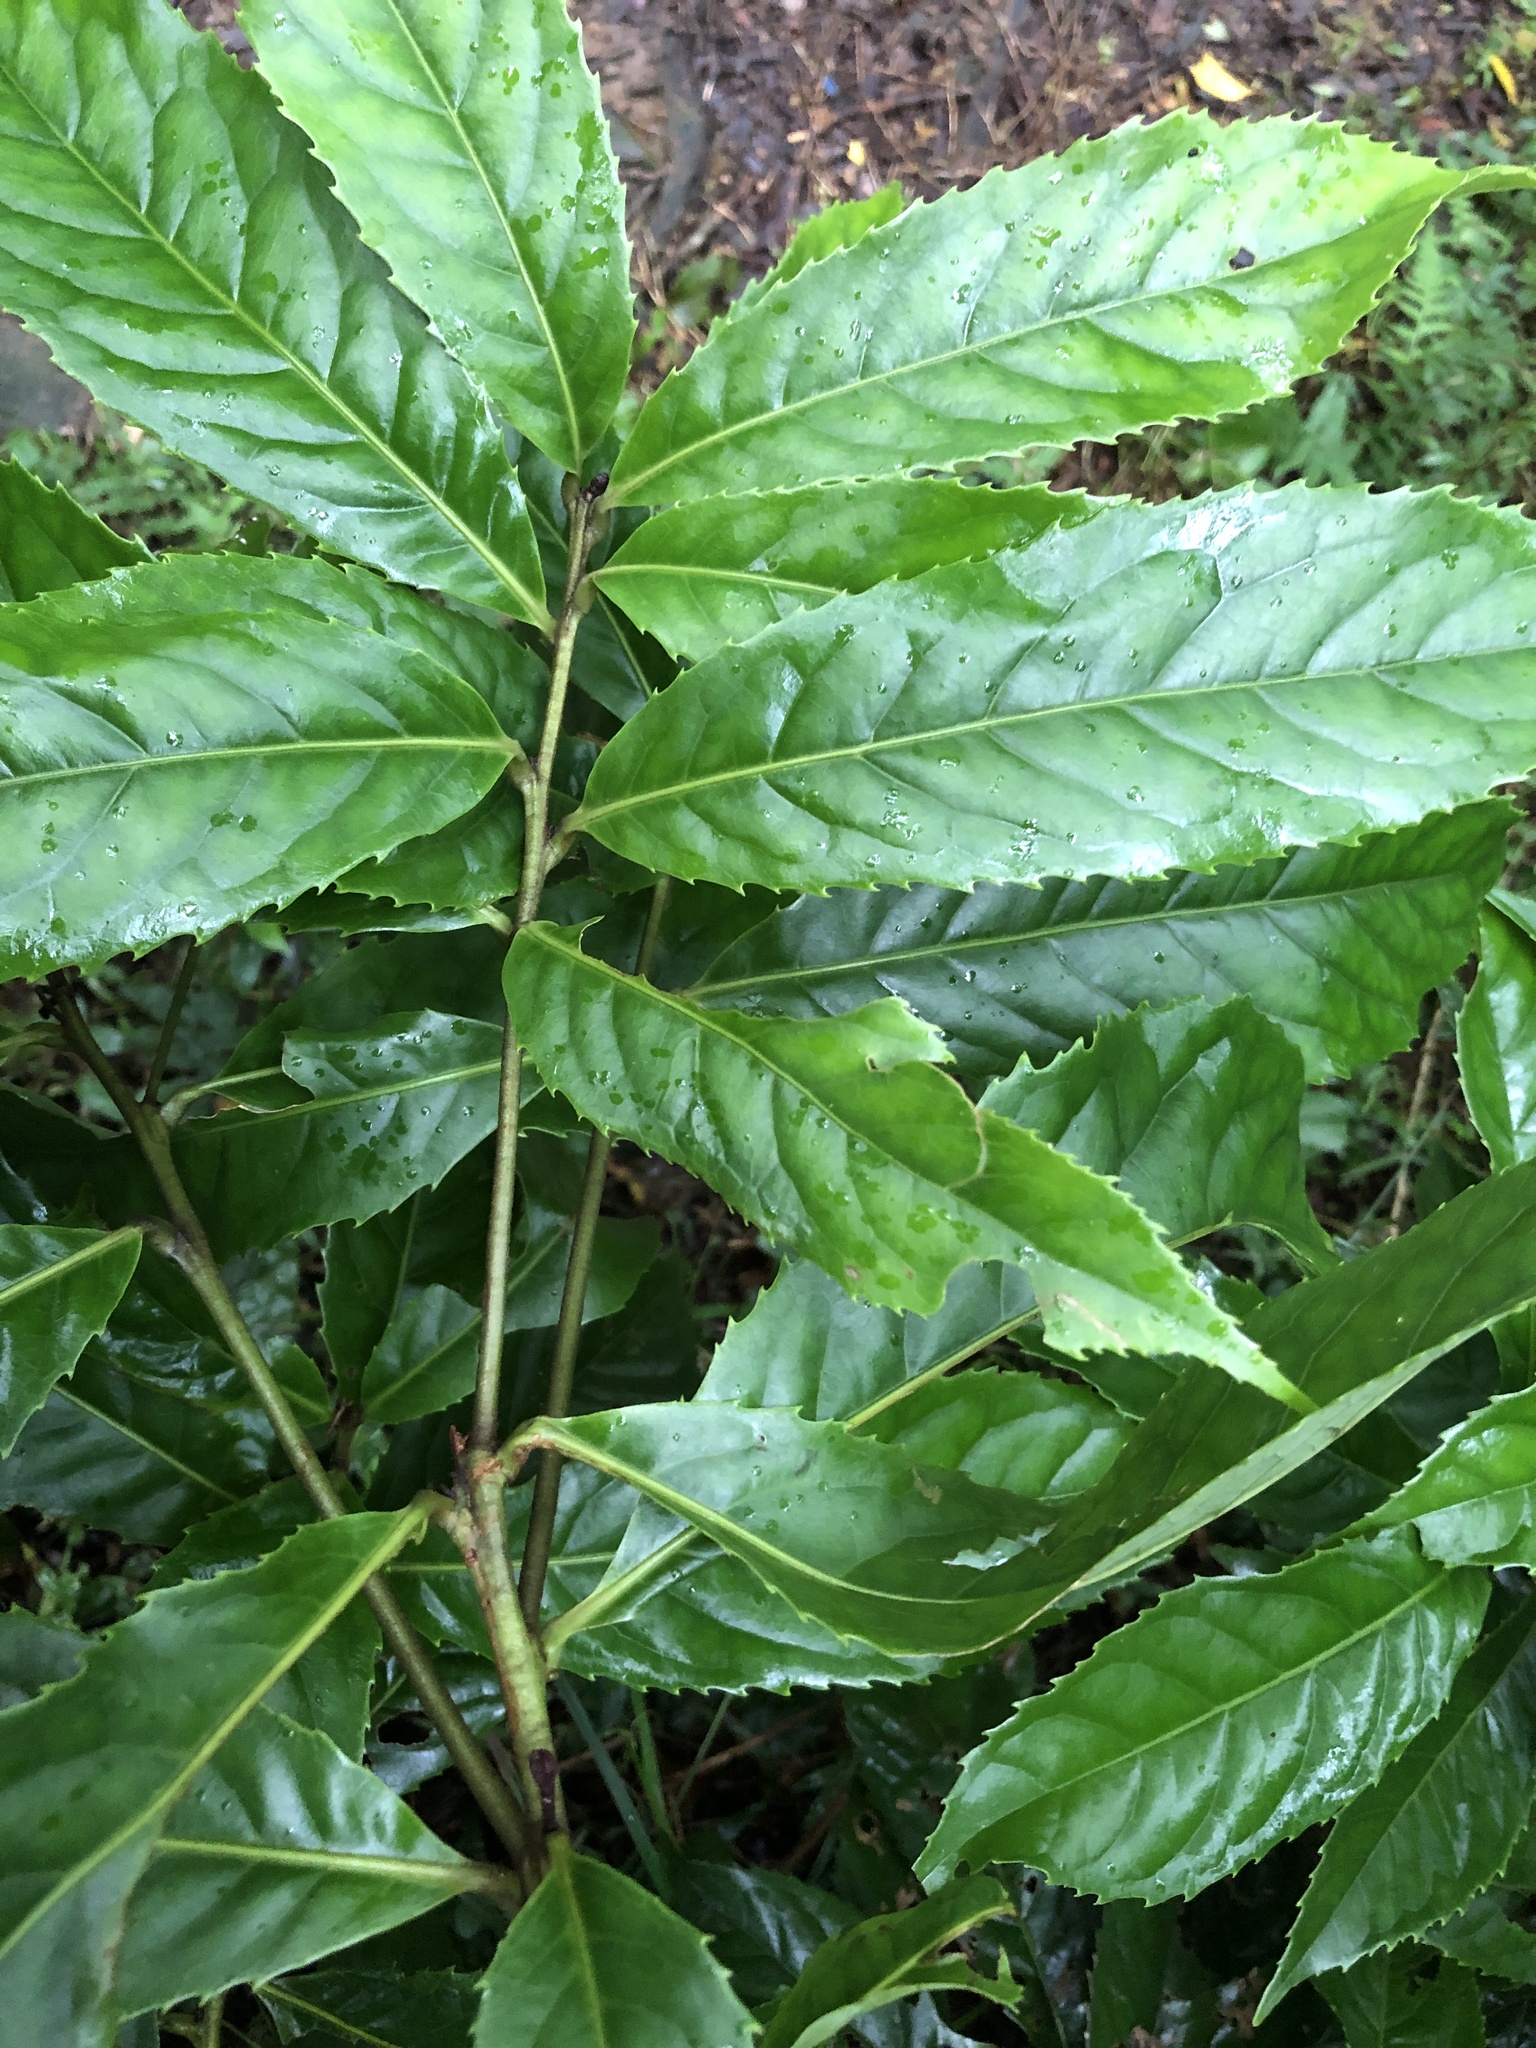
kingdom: Plantae
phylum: Tracheophyta
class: Magnoliopsida
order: Proteales
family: Proteaceae
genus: Helicia
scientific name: Helicia formosana
